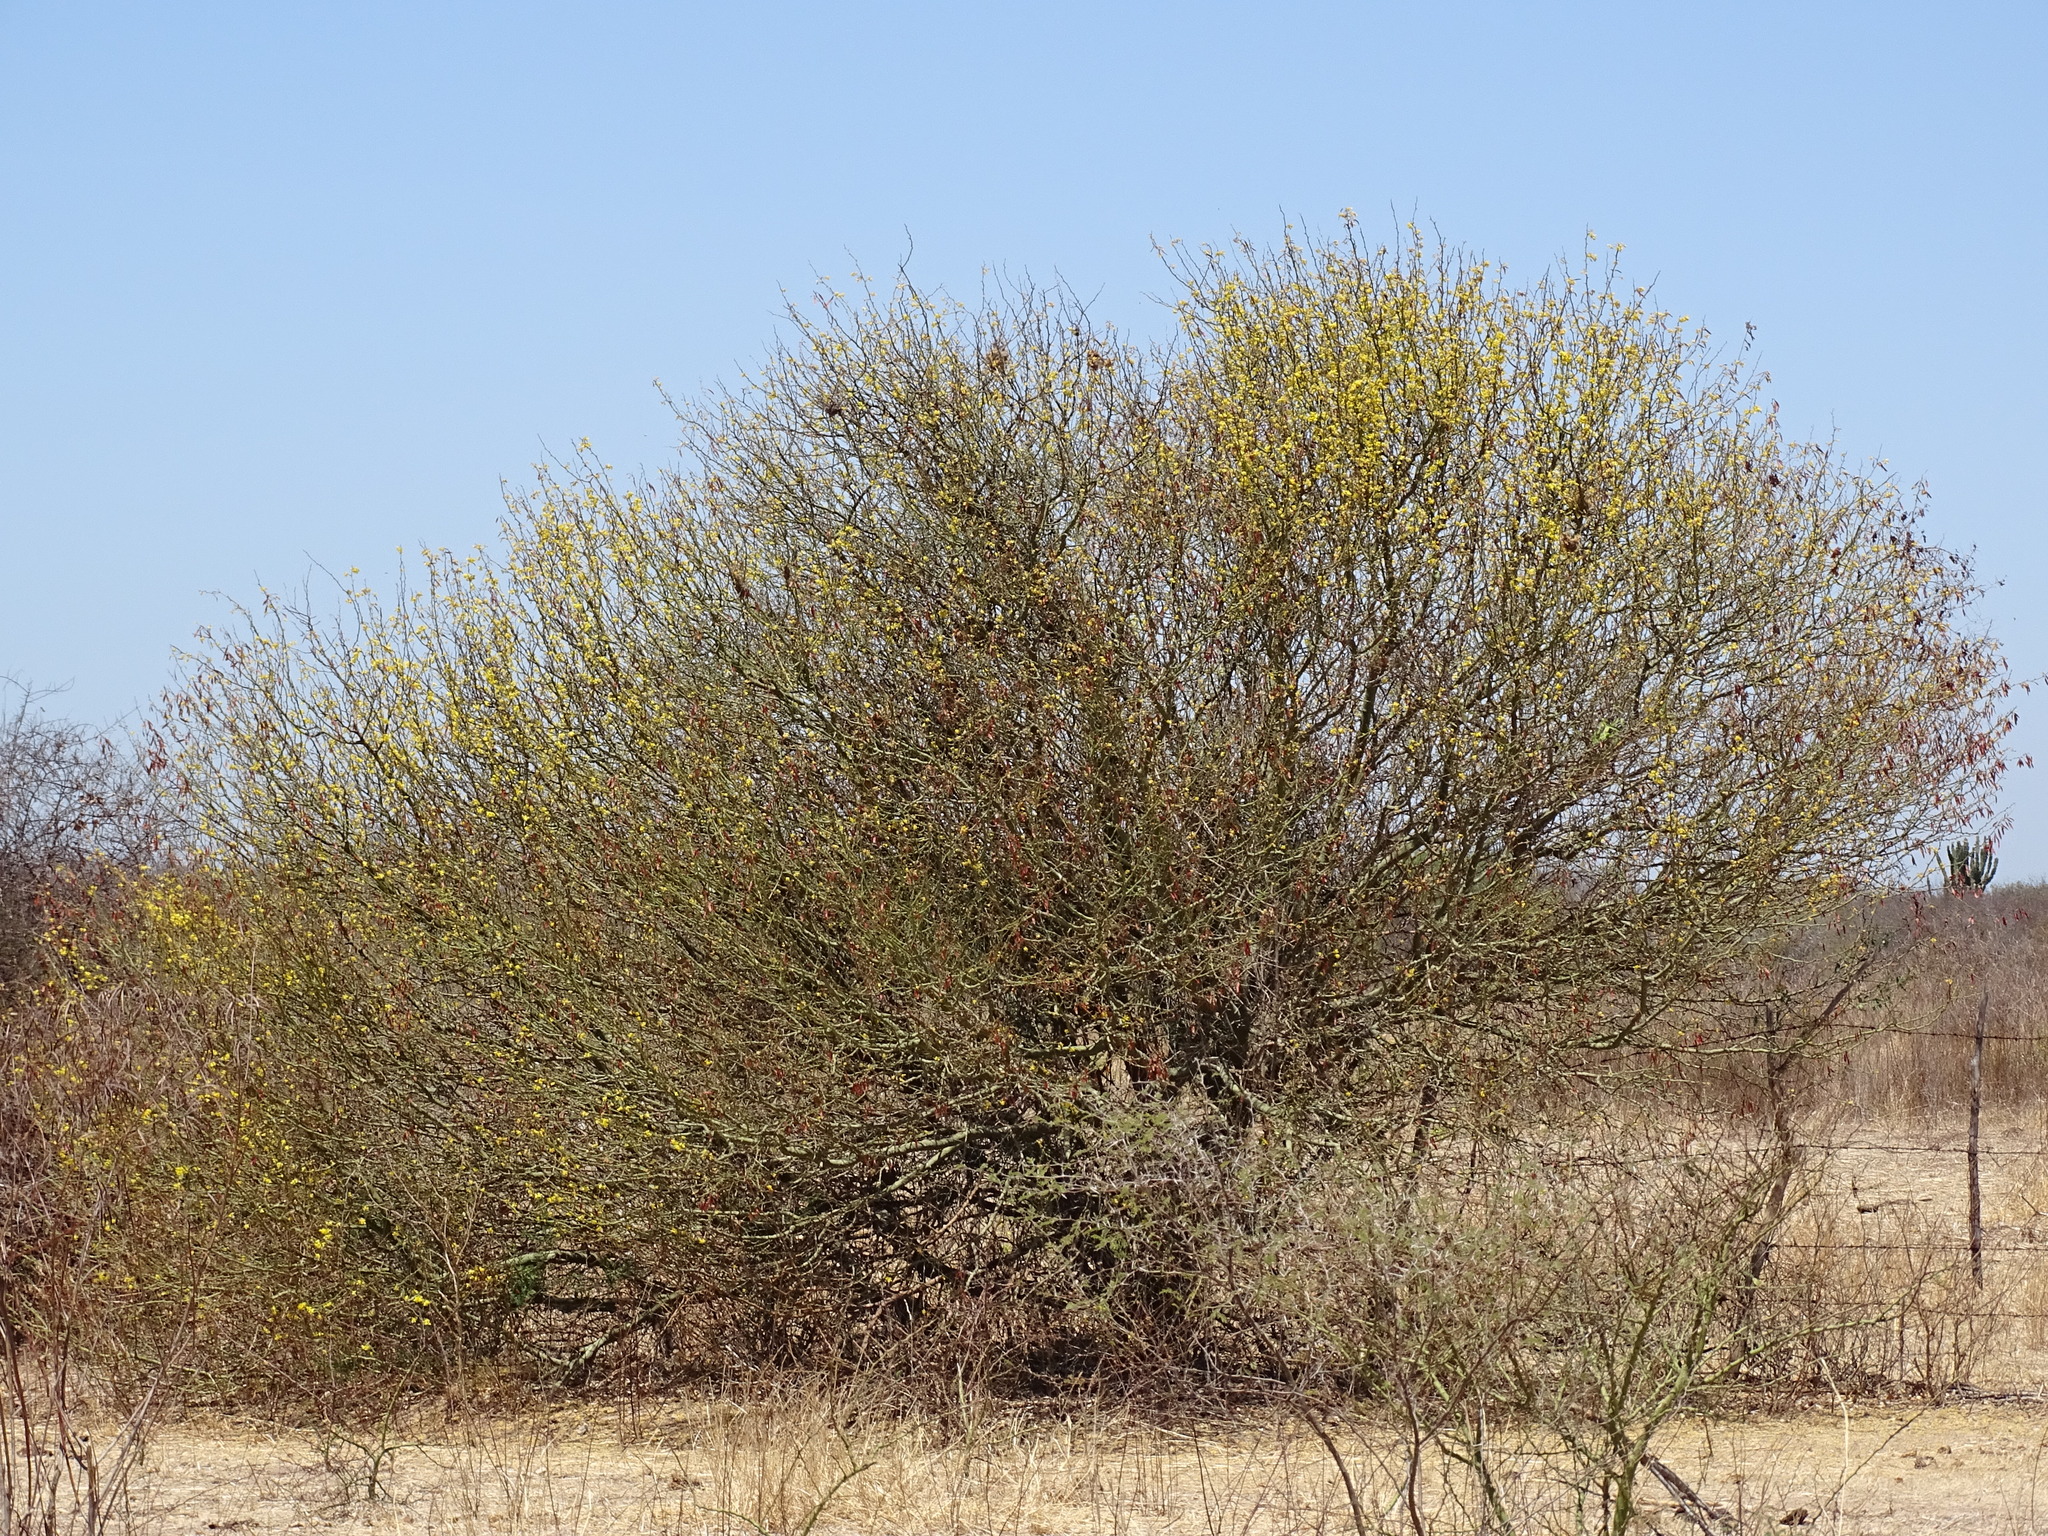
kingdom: Plantae
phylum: Tracheophyta
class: Magnoliopsida
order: Fabales
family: Fabaceae
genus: Parkinsonia
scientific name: Parkinsonia praecox
